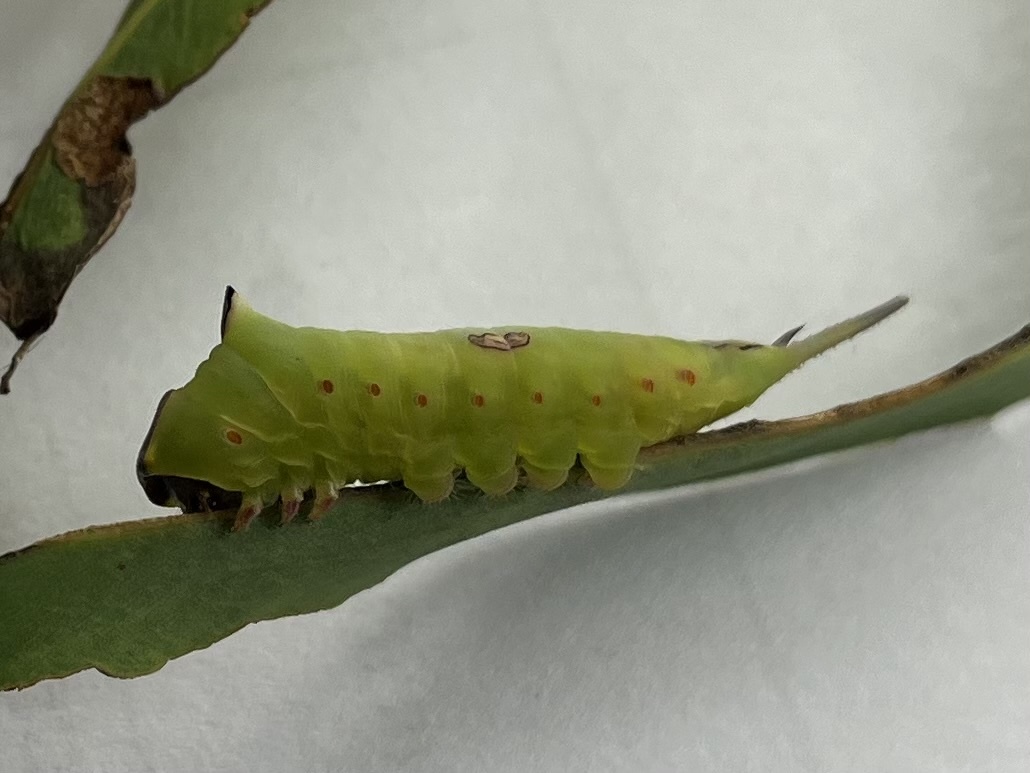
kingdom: Animalia
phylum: Arthropoda
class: Insecta
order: Lepidoptera
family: Notodontidae
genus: Hampsonita
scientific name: Hampsonita esmeralda
